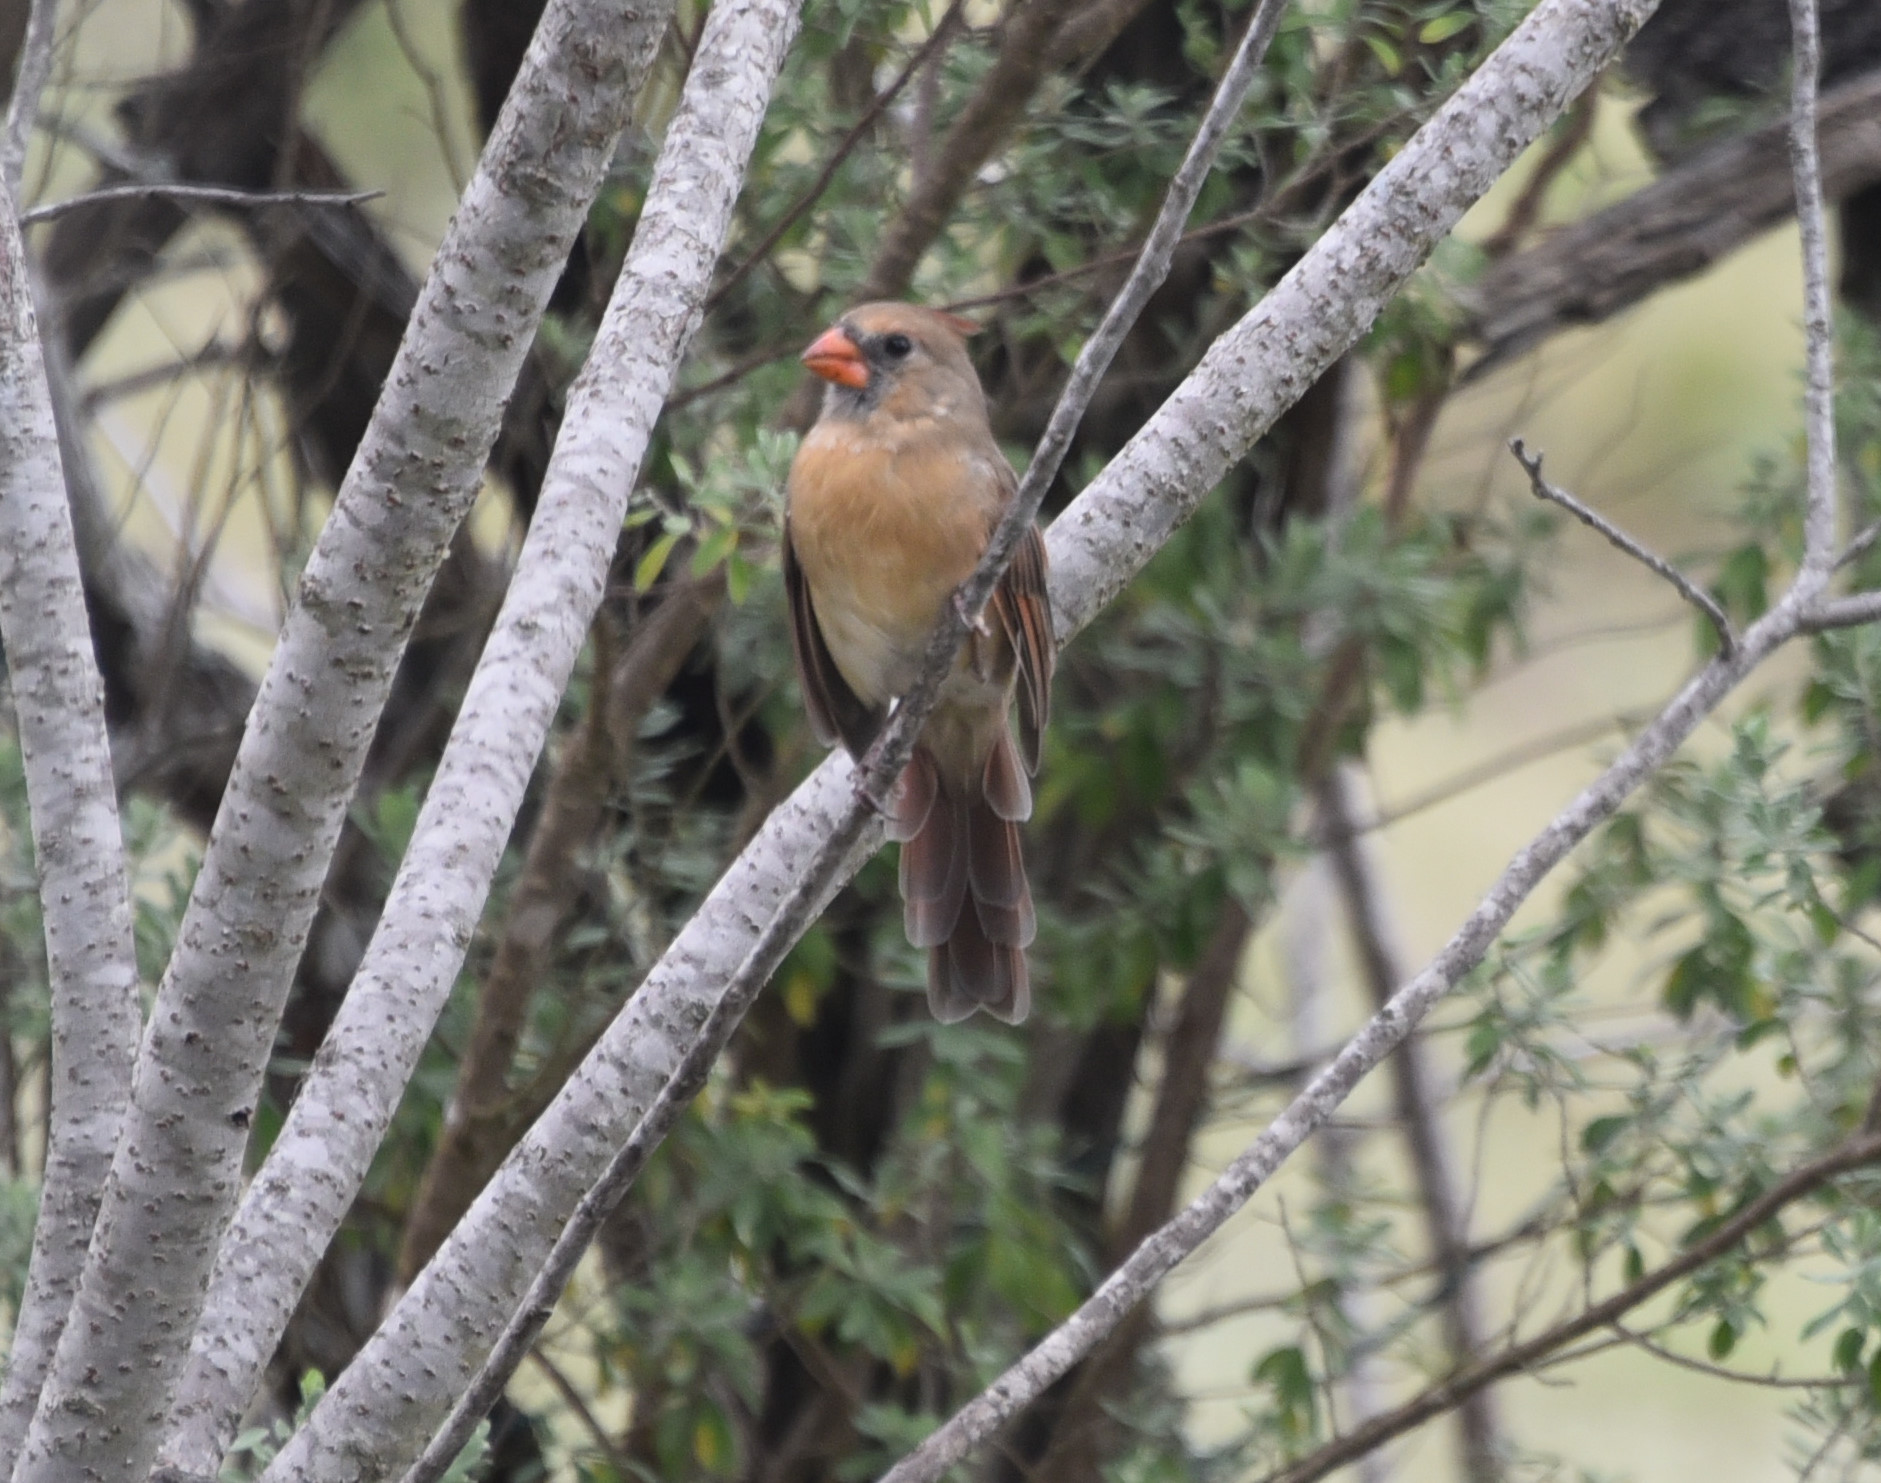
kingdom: Animalia
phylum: Chordata
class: Aves
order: Passeriformes
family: Cardinalidae
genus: Cardinalis
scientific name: Cardinalis cardinalis
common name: Northern cardinal
